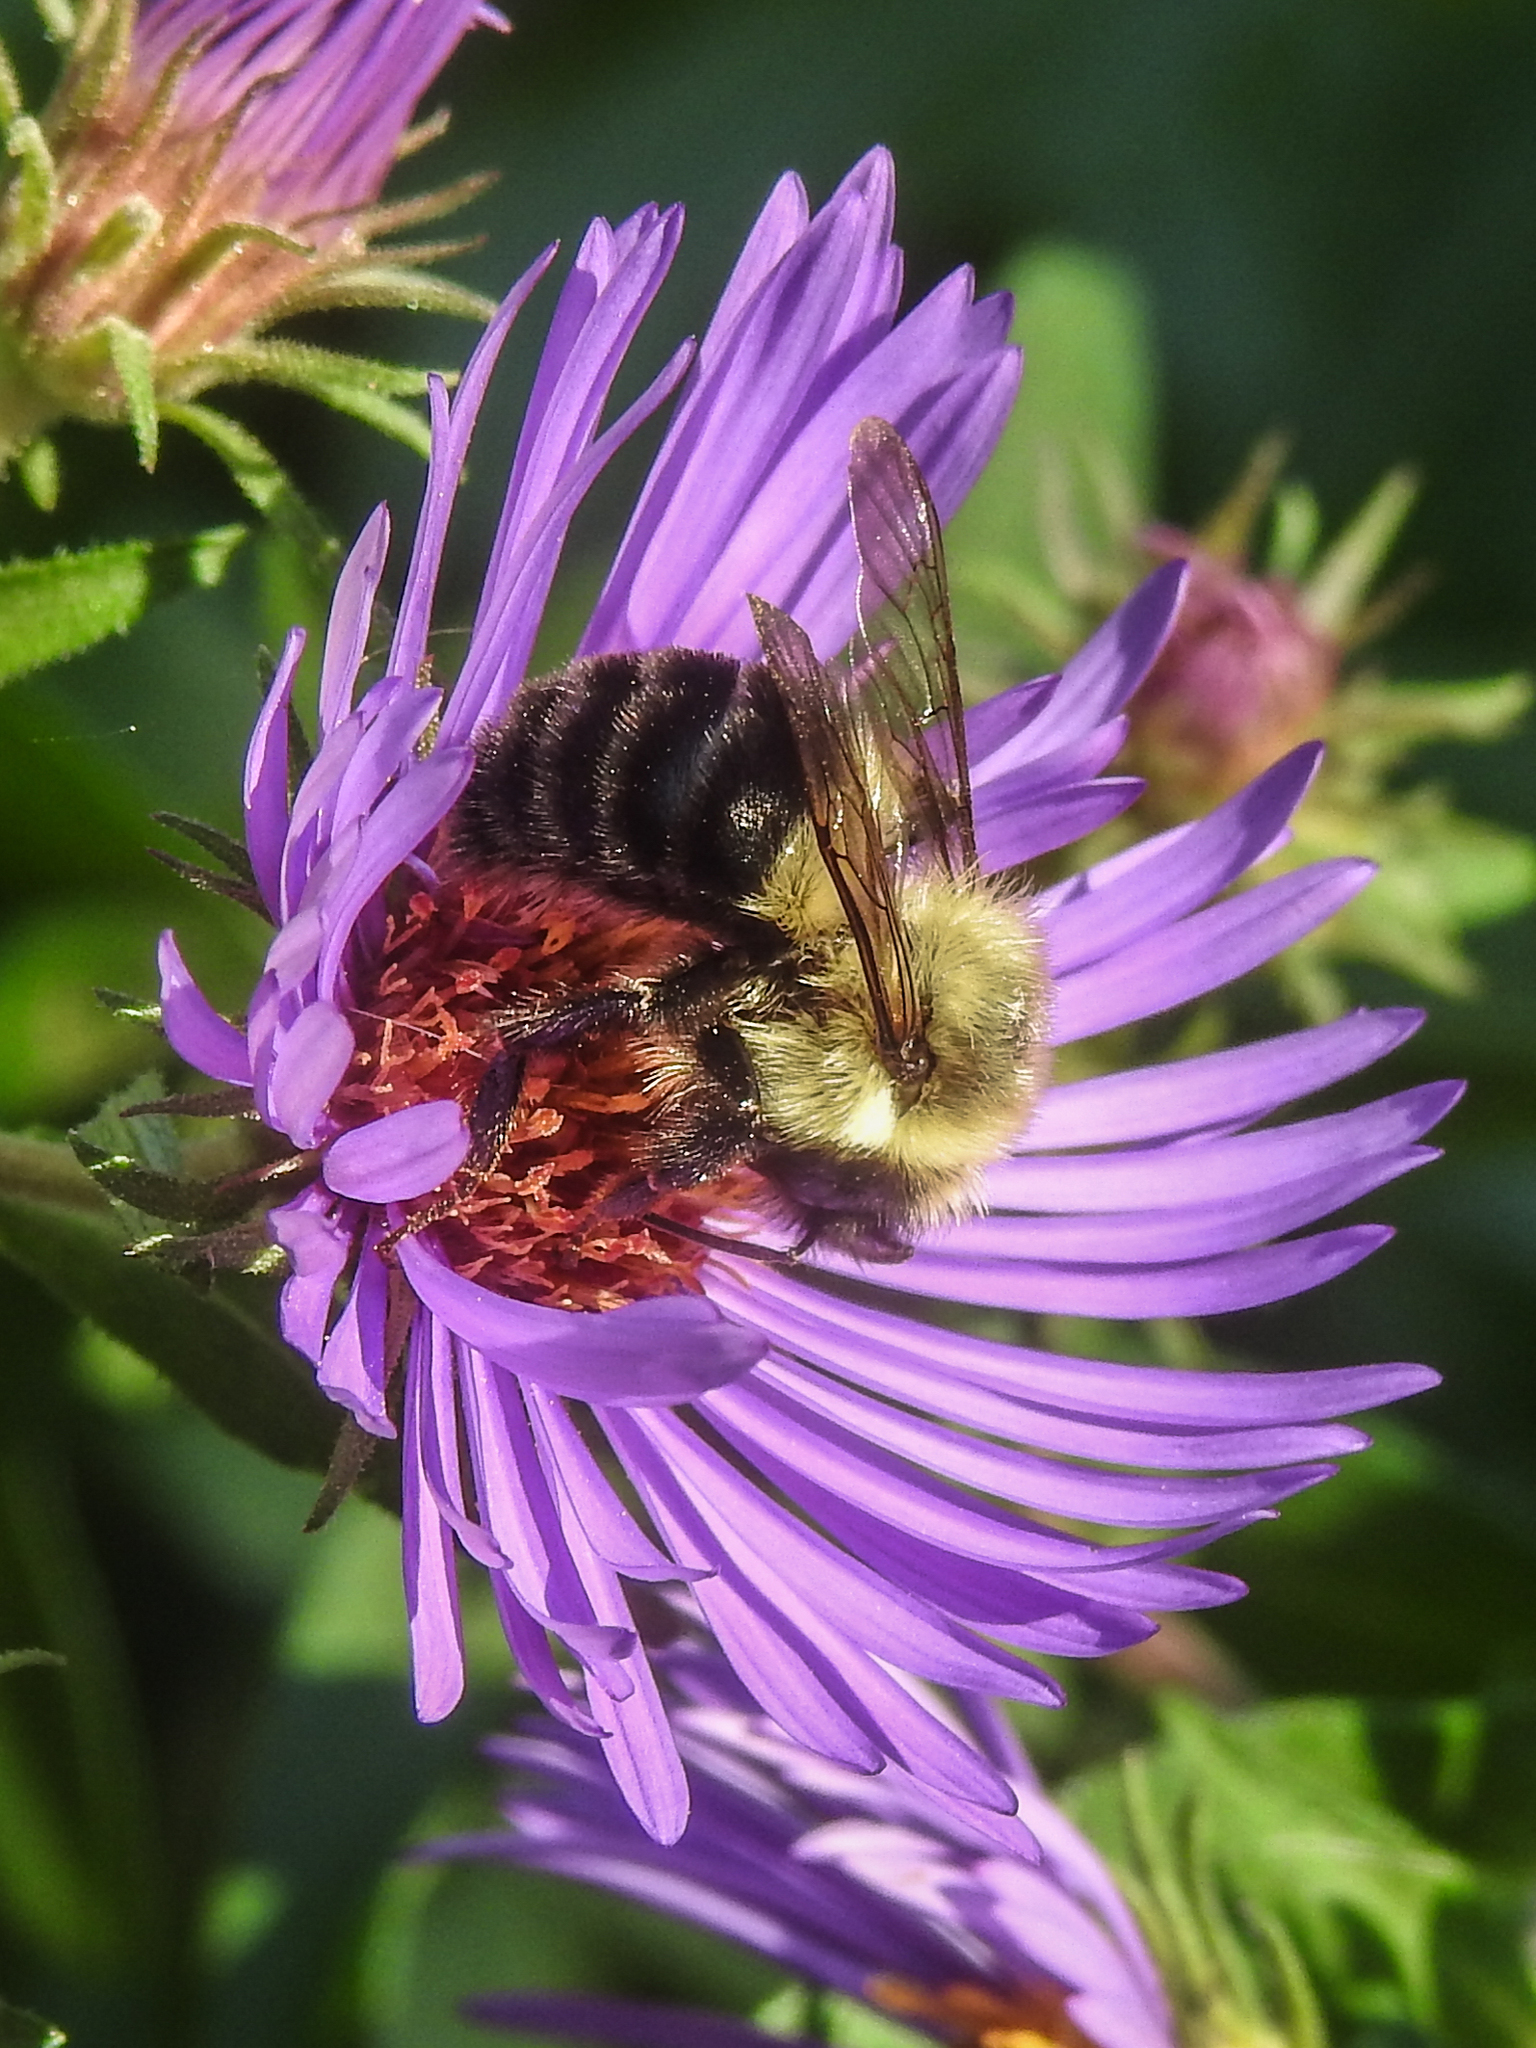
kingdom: Animalia
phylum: Arthropoda
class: Insecta
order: Hymenoptera
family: Apidae
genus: Bombus
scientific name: Bombus impatiens
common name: Common eastern bumble bee
